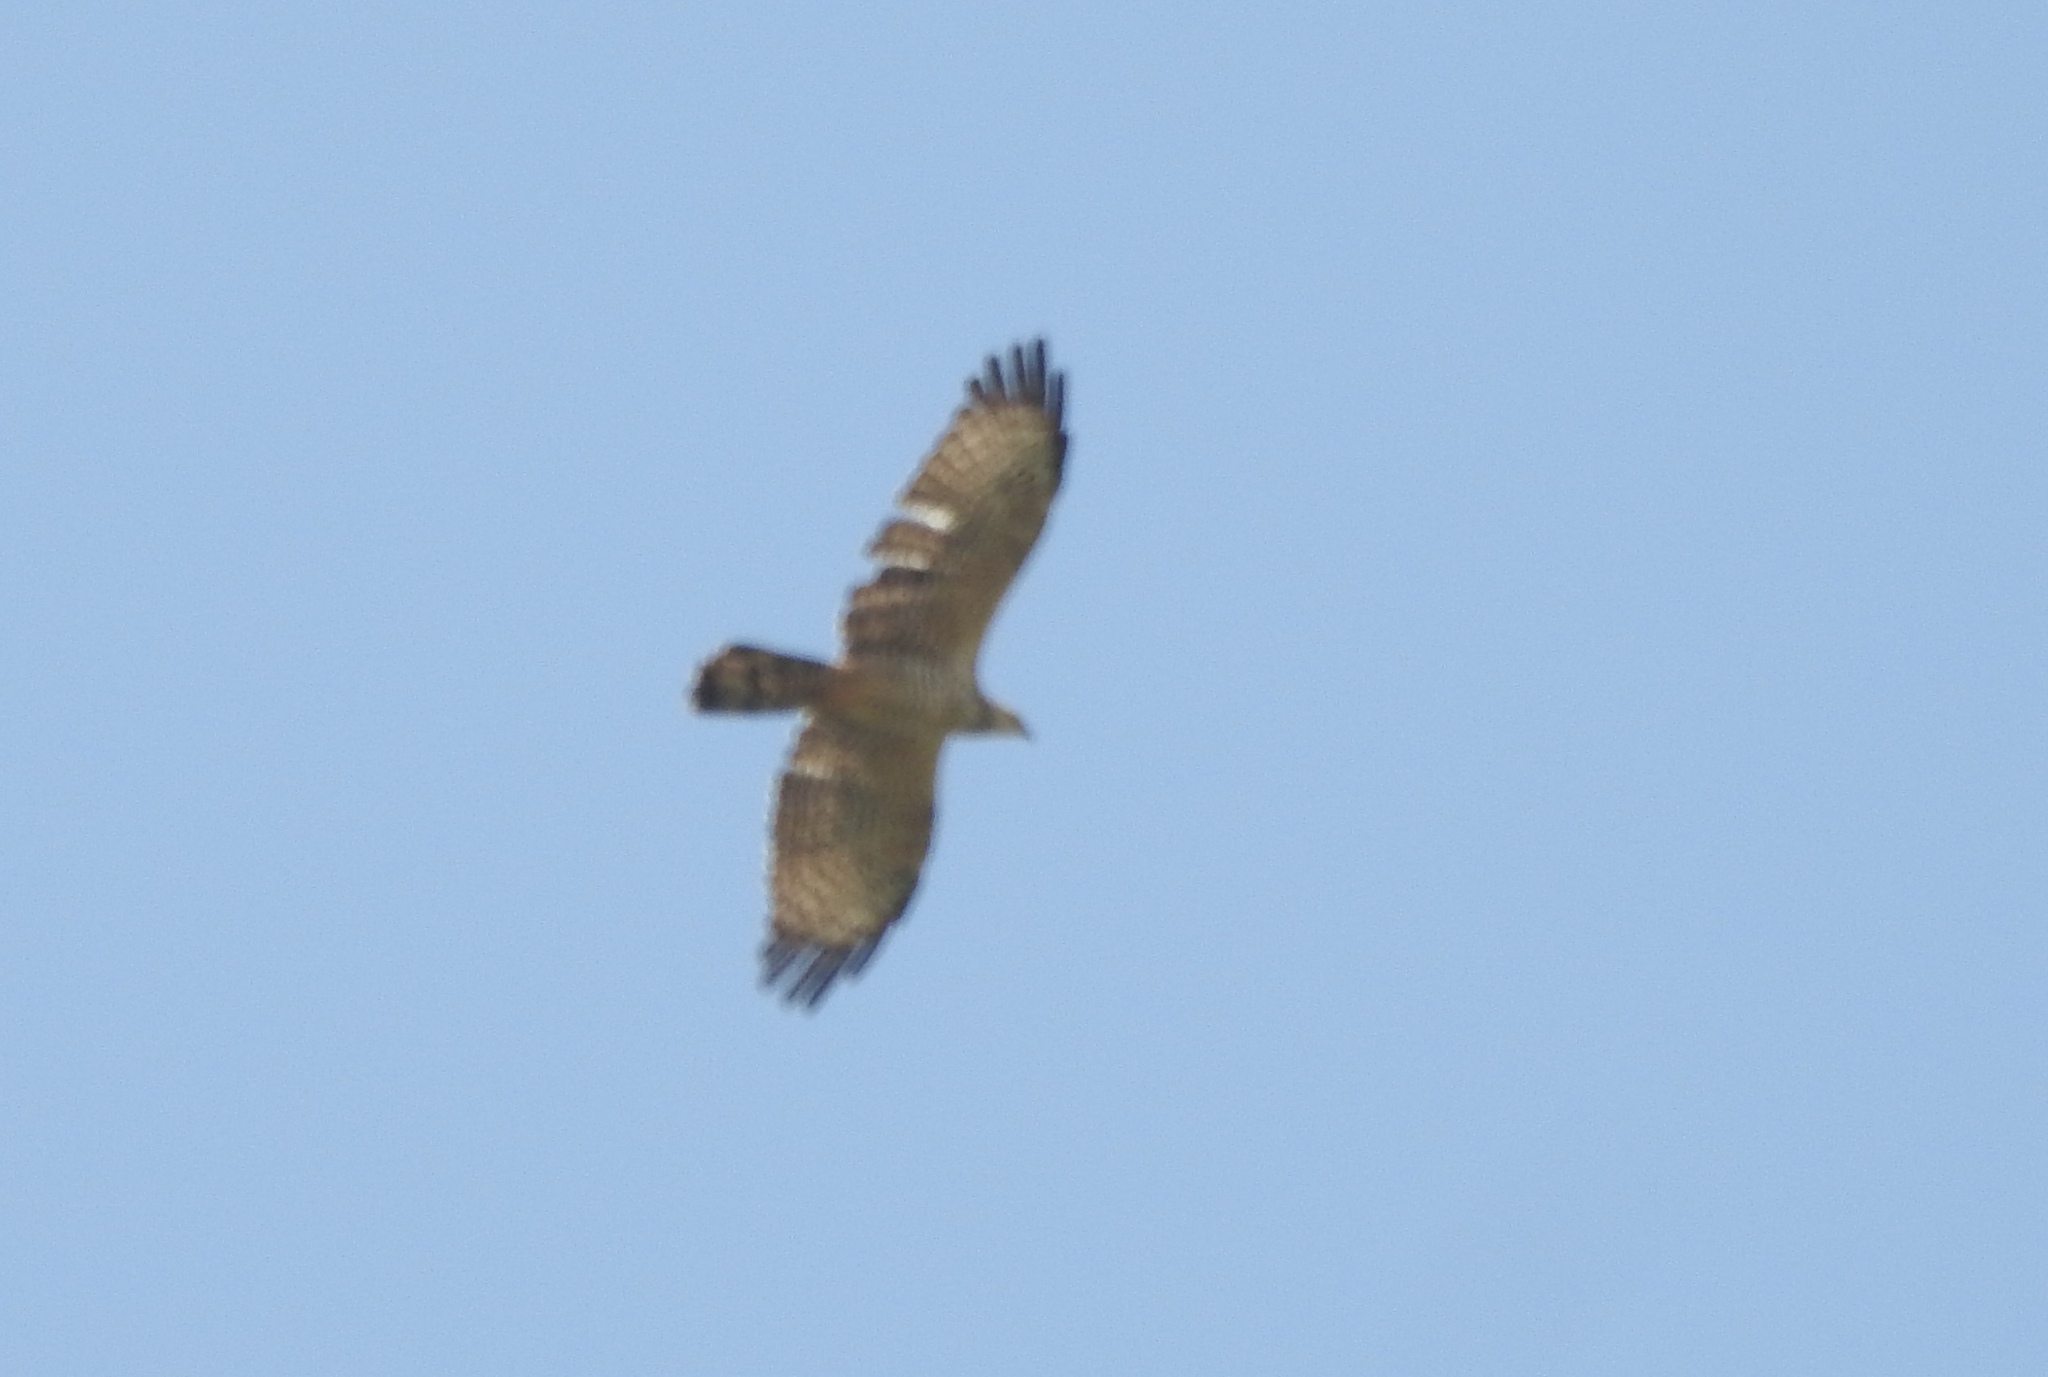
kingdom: Animalia
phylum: Chordata
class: Aves
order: Accipitriformes
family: Accipitridae
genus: Pernis
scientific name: Pernis ptilorhynchus
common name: Crested honey buzzard
